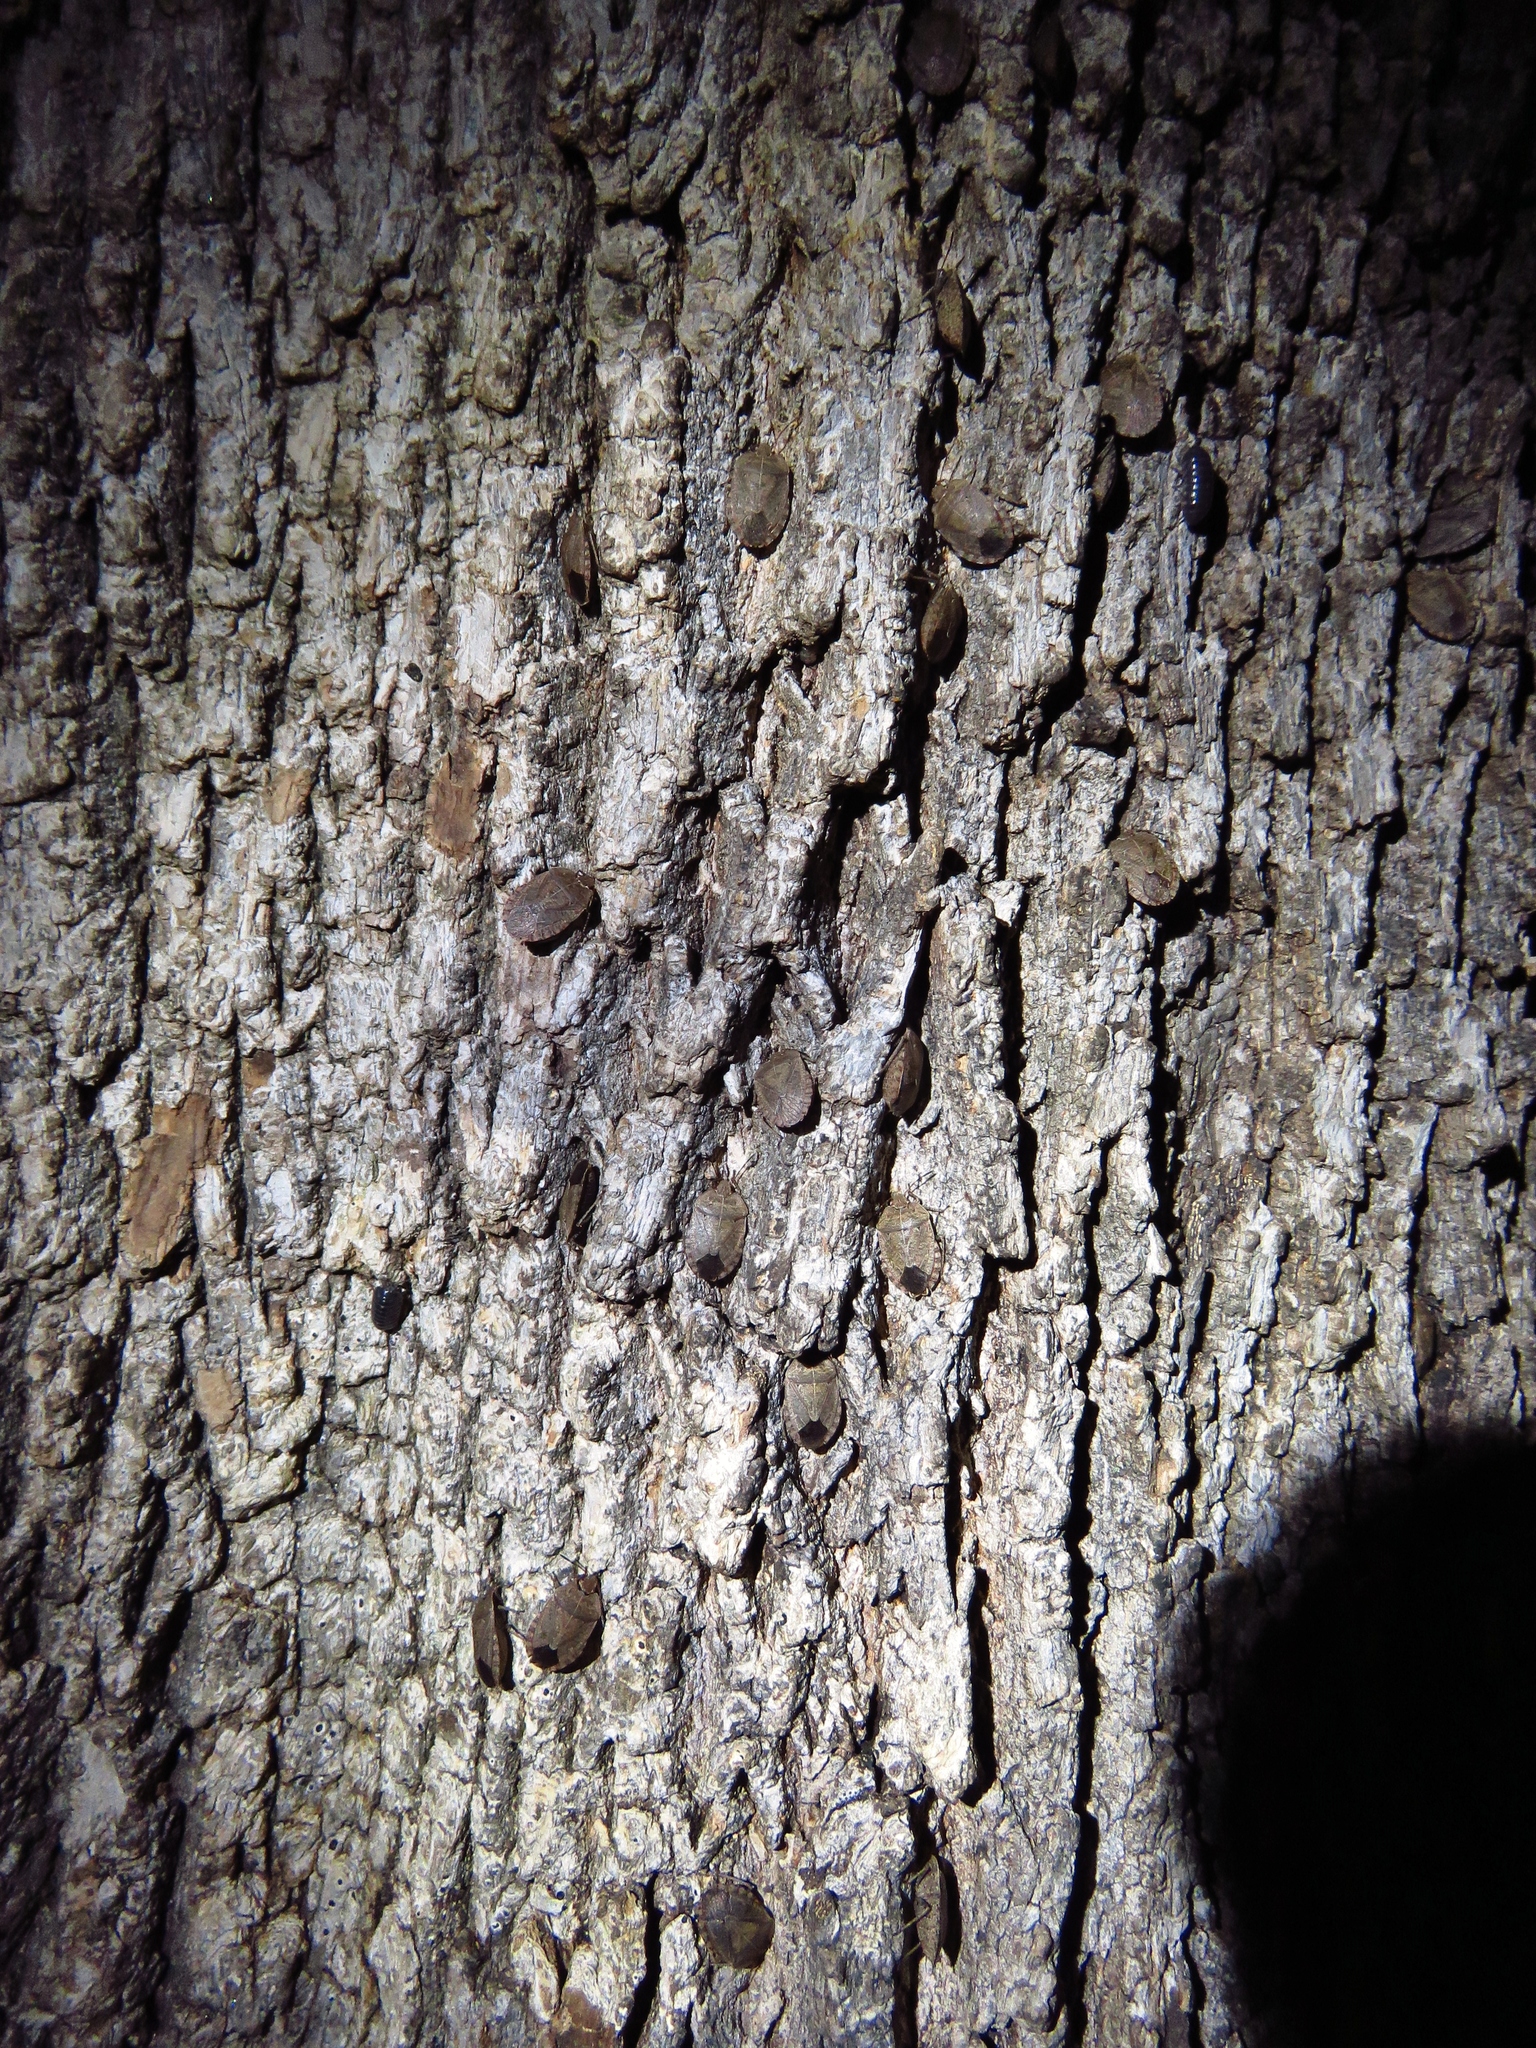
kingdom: Animalia
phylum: Arthropoda
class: Insecta
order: Hemiptera
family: Pentatomidae
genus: Menecles
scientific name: Menecles insertus
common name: Elf shoe stink bug
